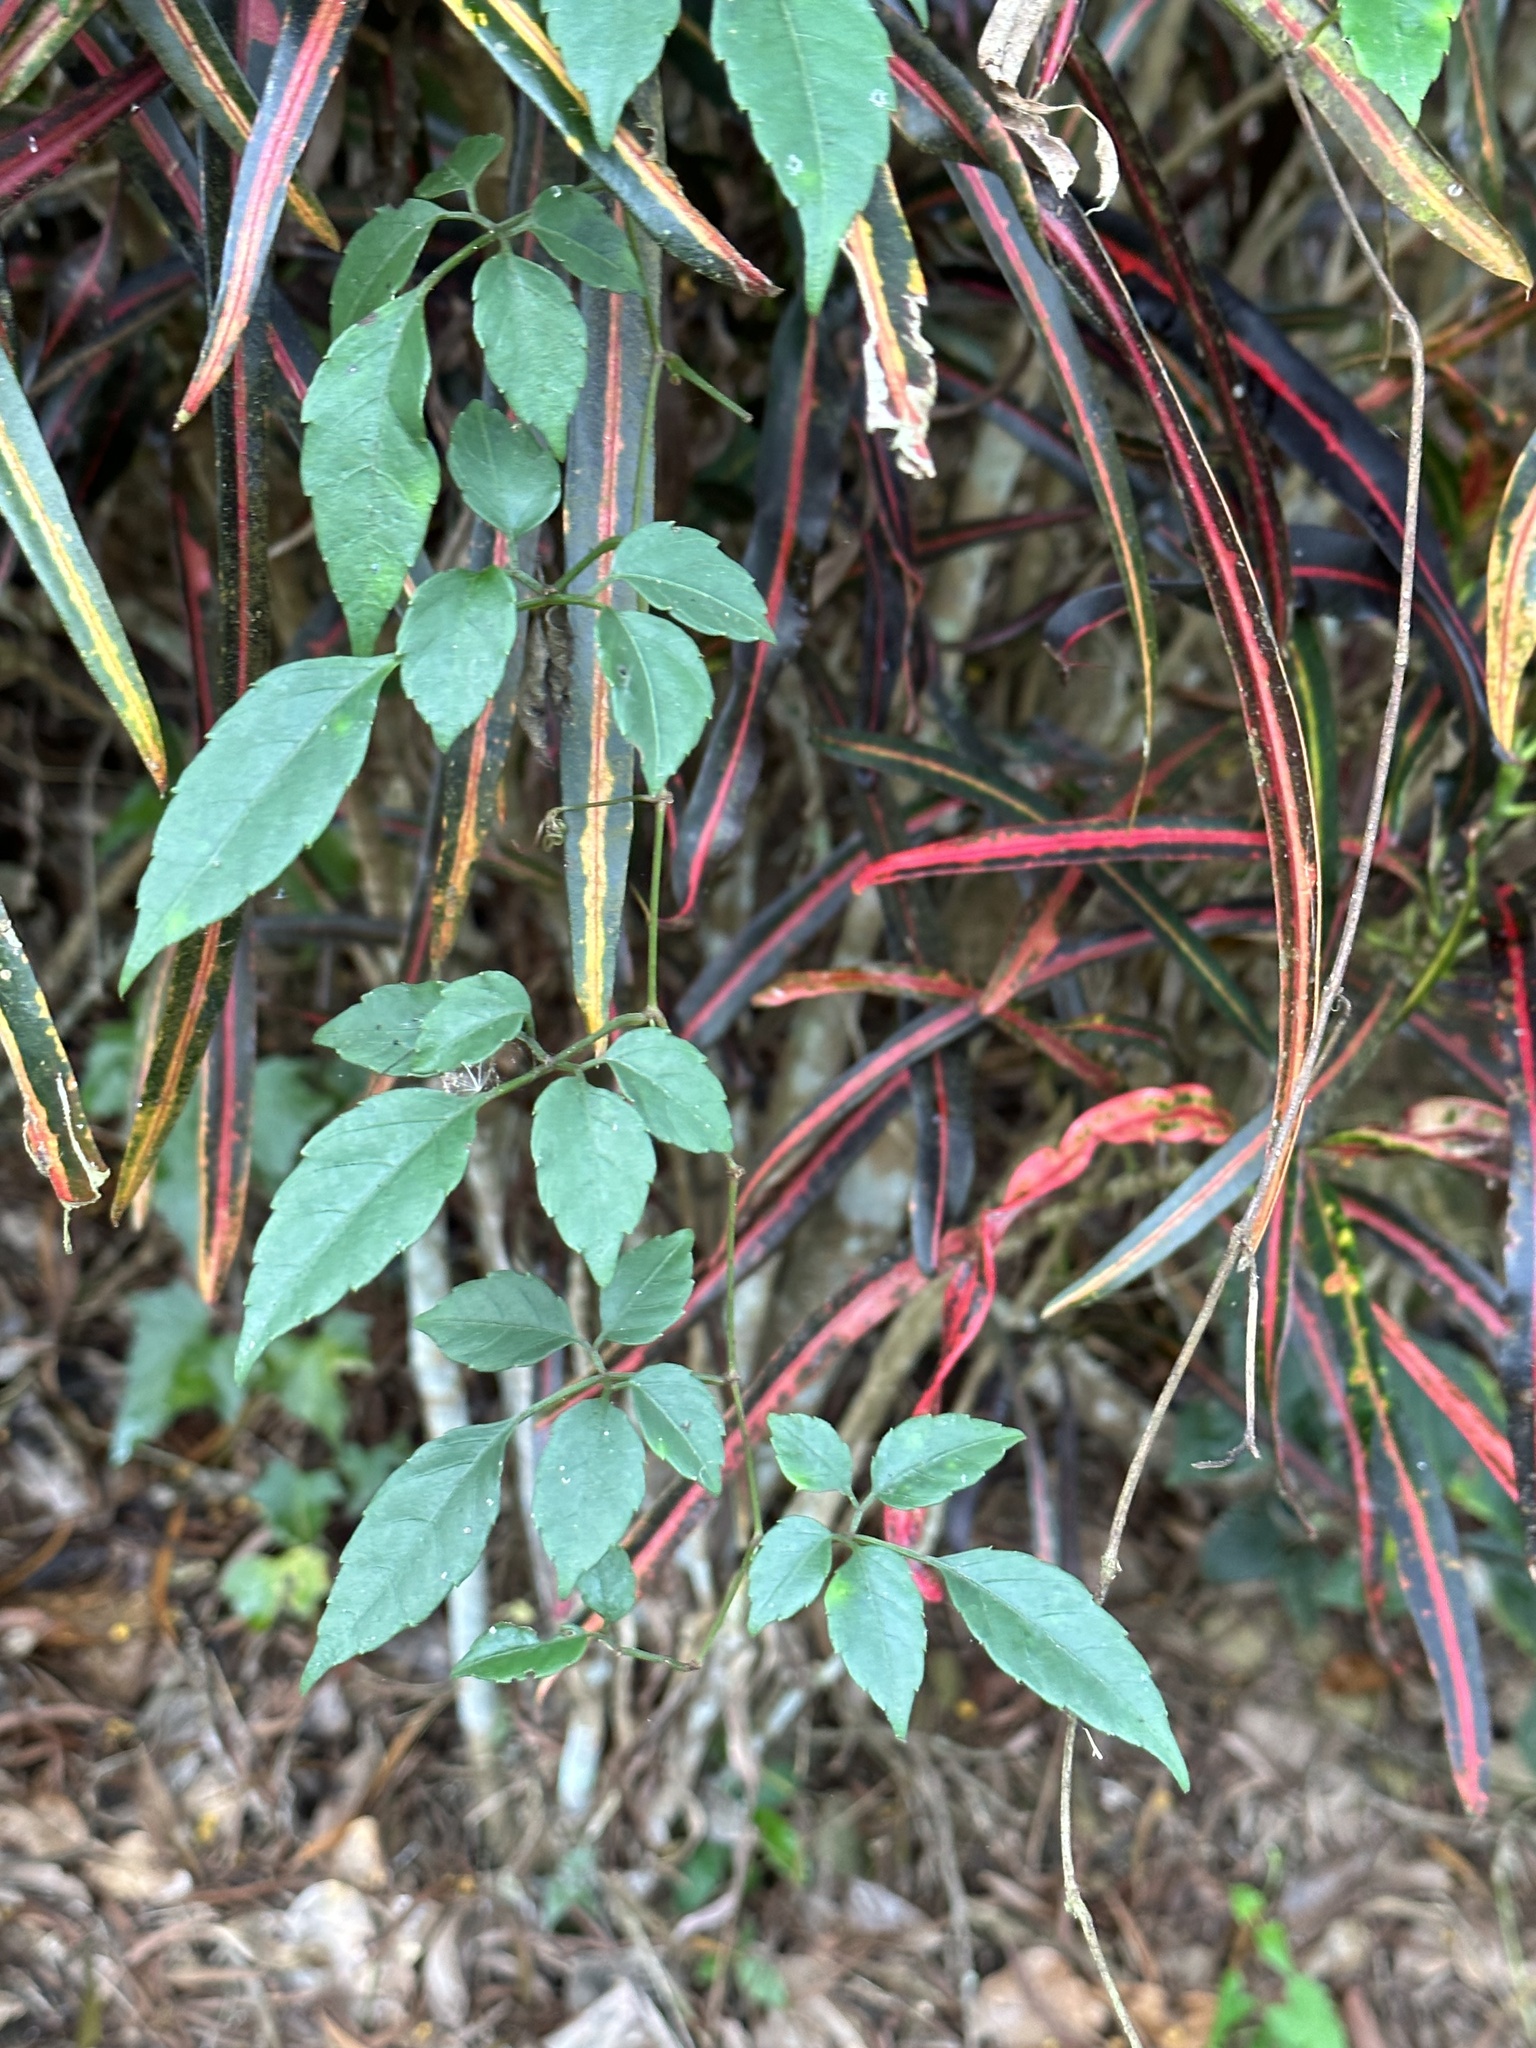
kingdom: Plantae
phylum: Tracheophyta
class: Magnoliopsida
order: Vitales
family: Vitaceae
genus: Causonis
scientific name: Causonis corniculata
